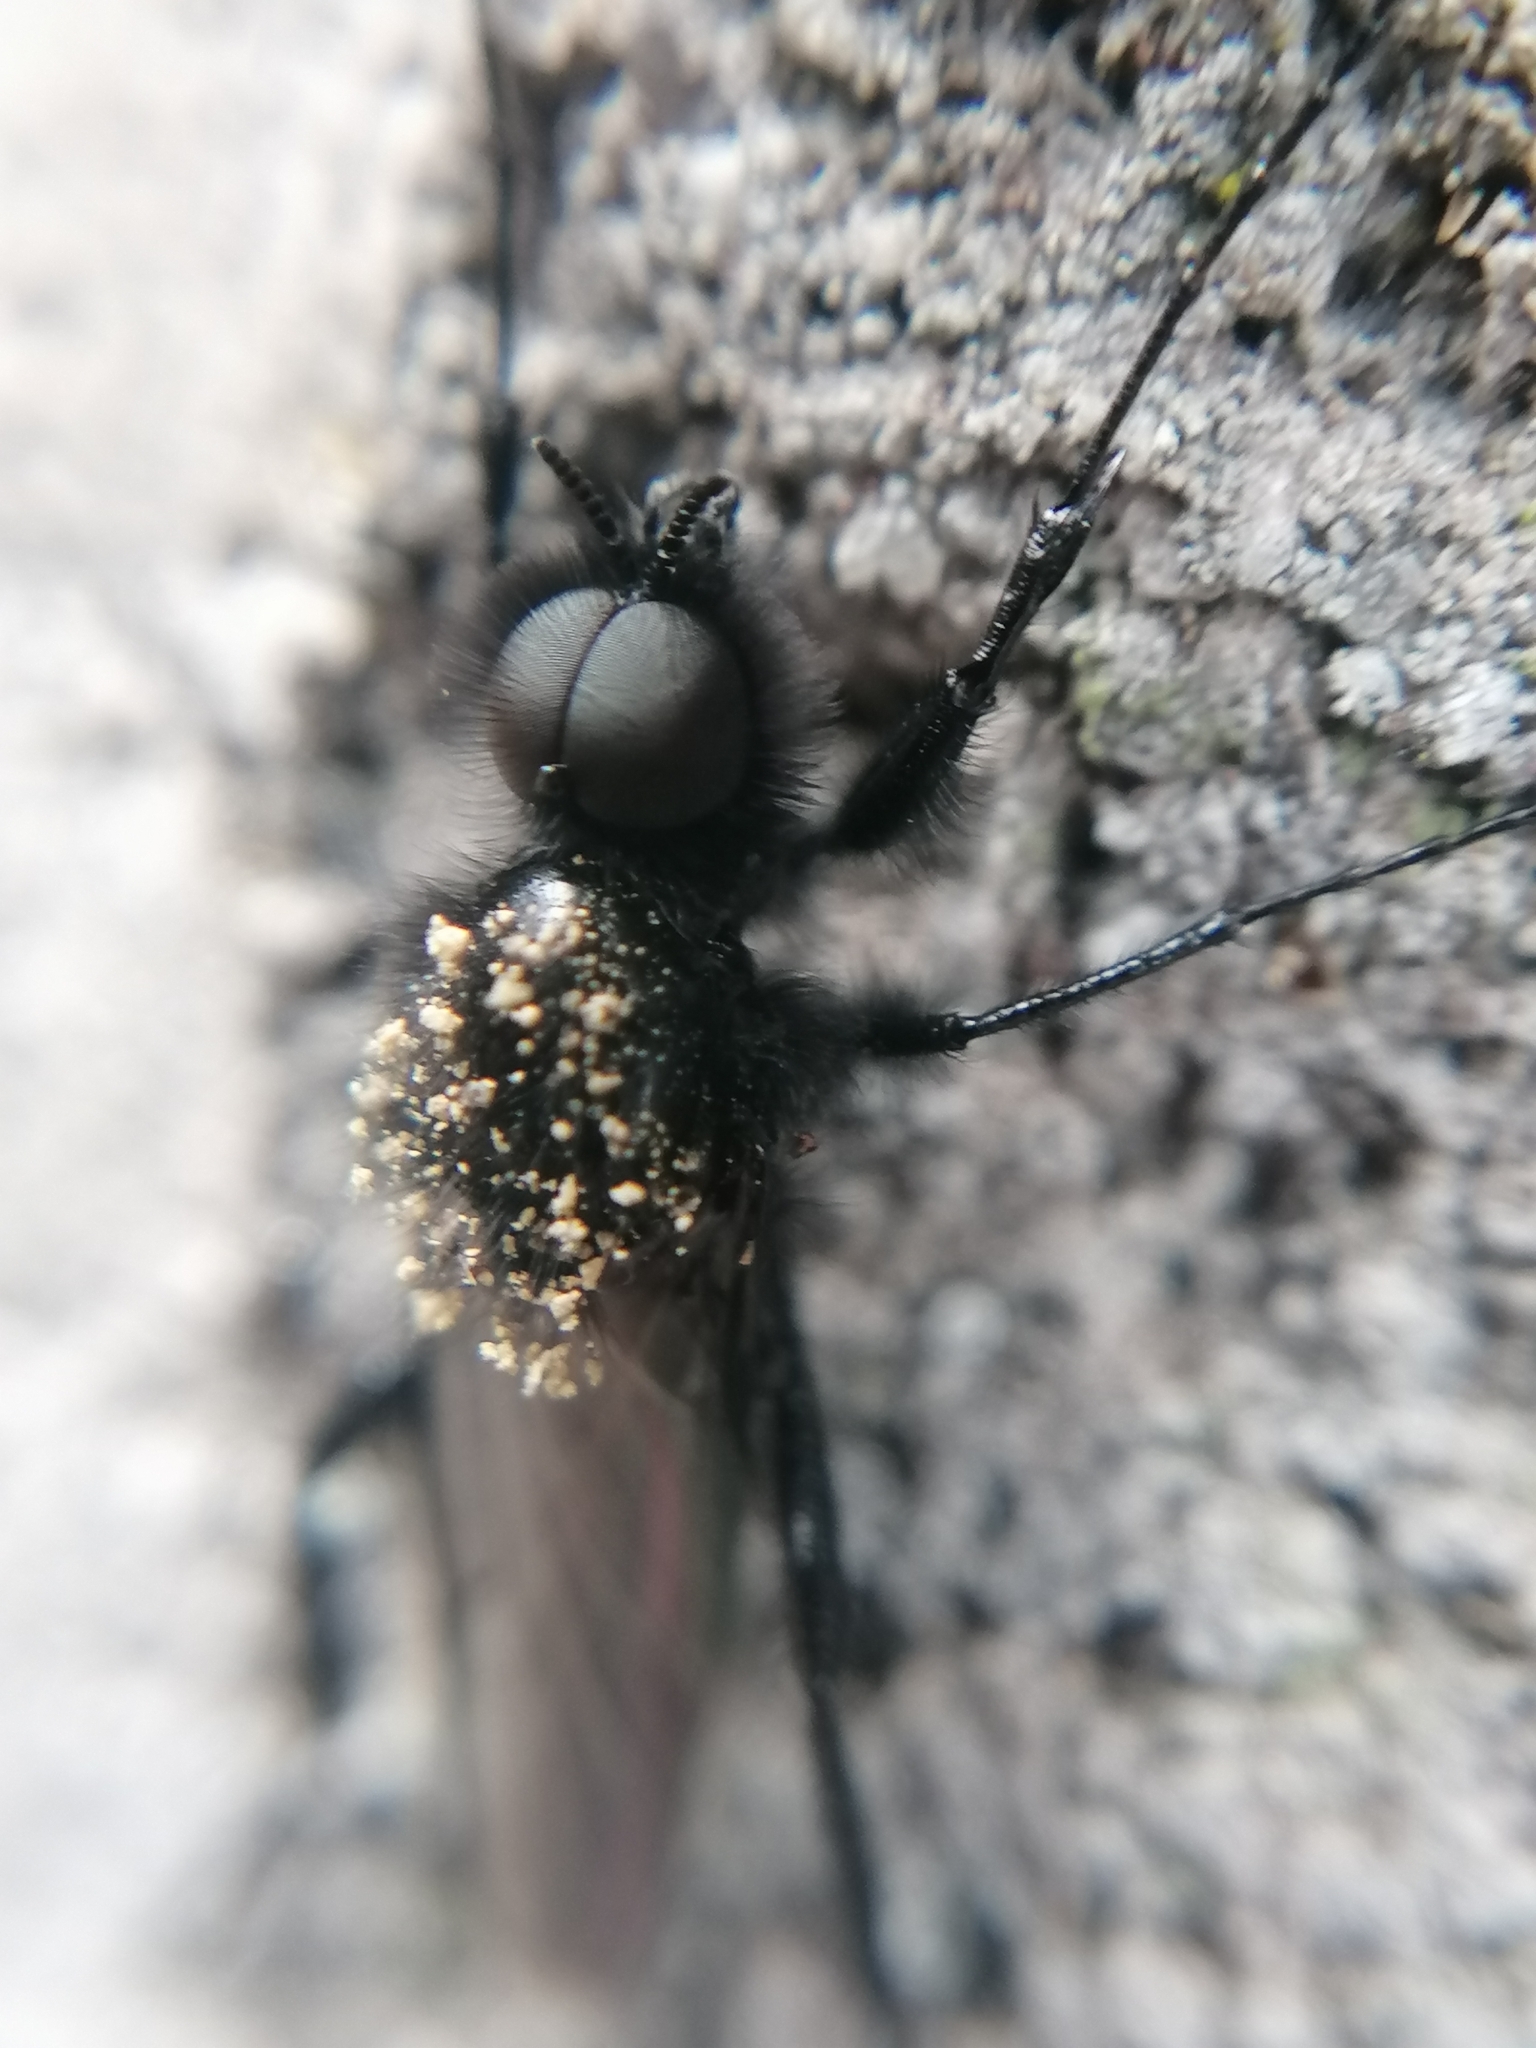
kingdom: Animalia
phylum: Arthropoda
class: Insecta
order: Diptera
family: Bibionidae
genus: Bibio
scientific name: Bibio marci
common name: St marks fly
